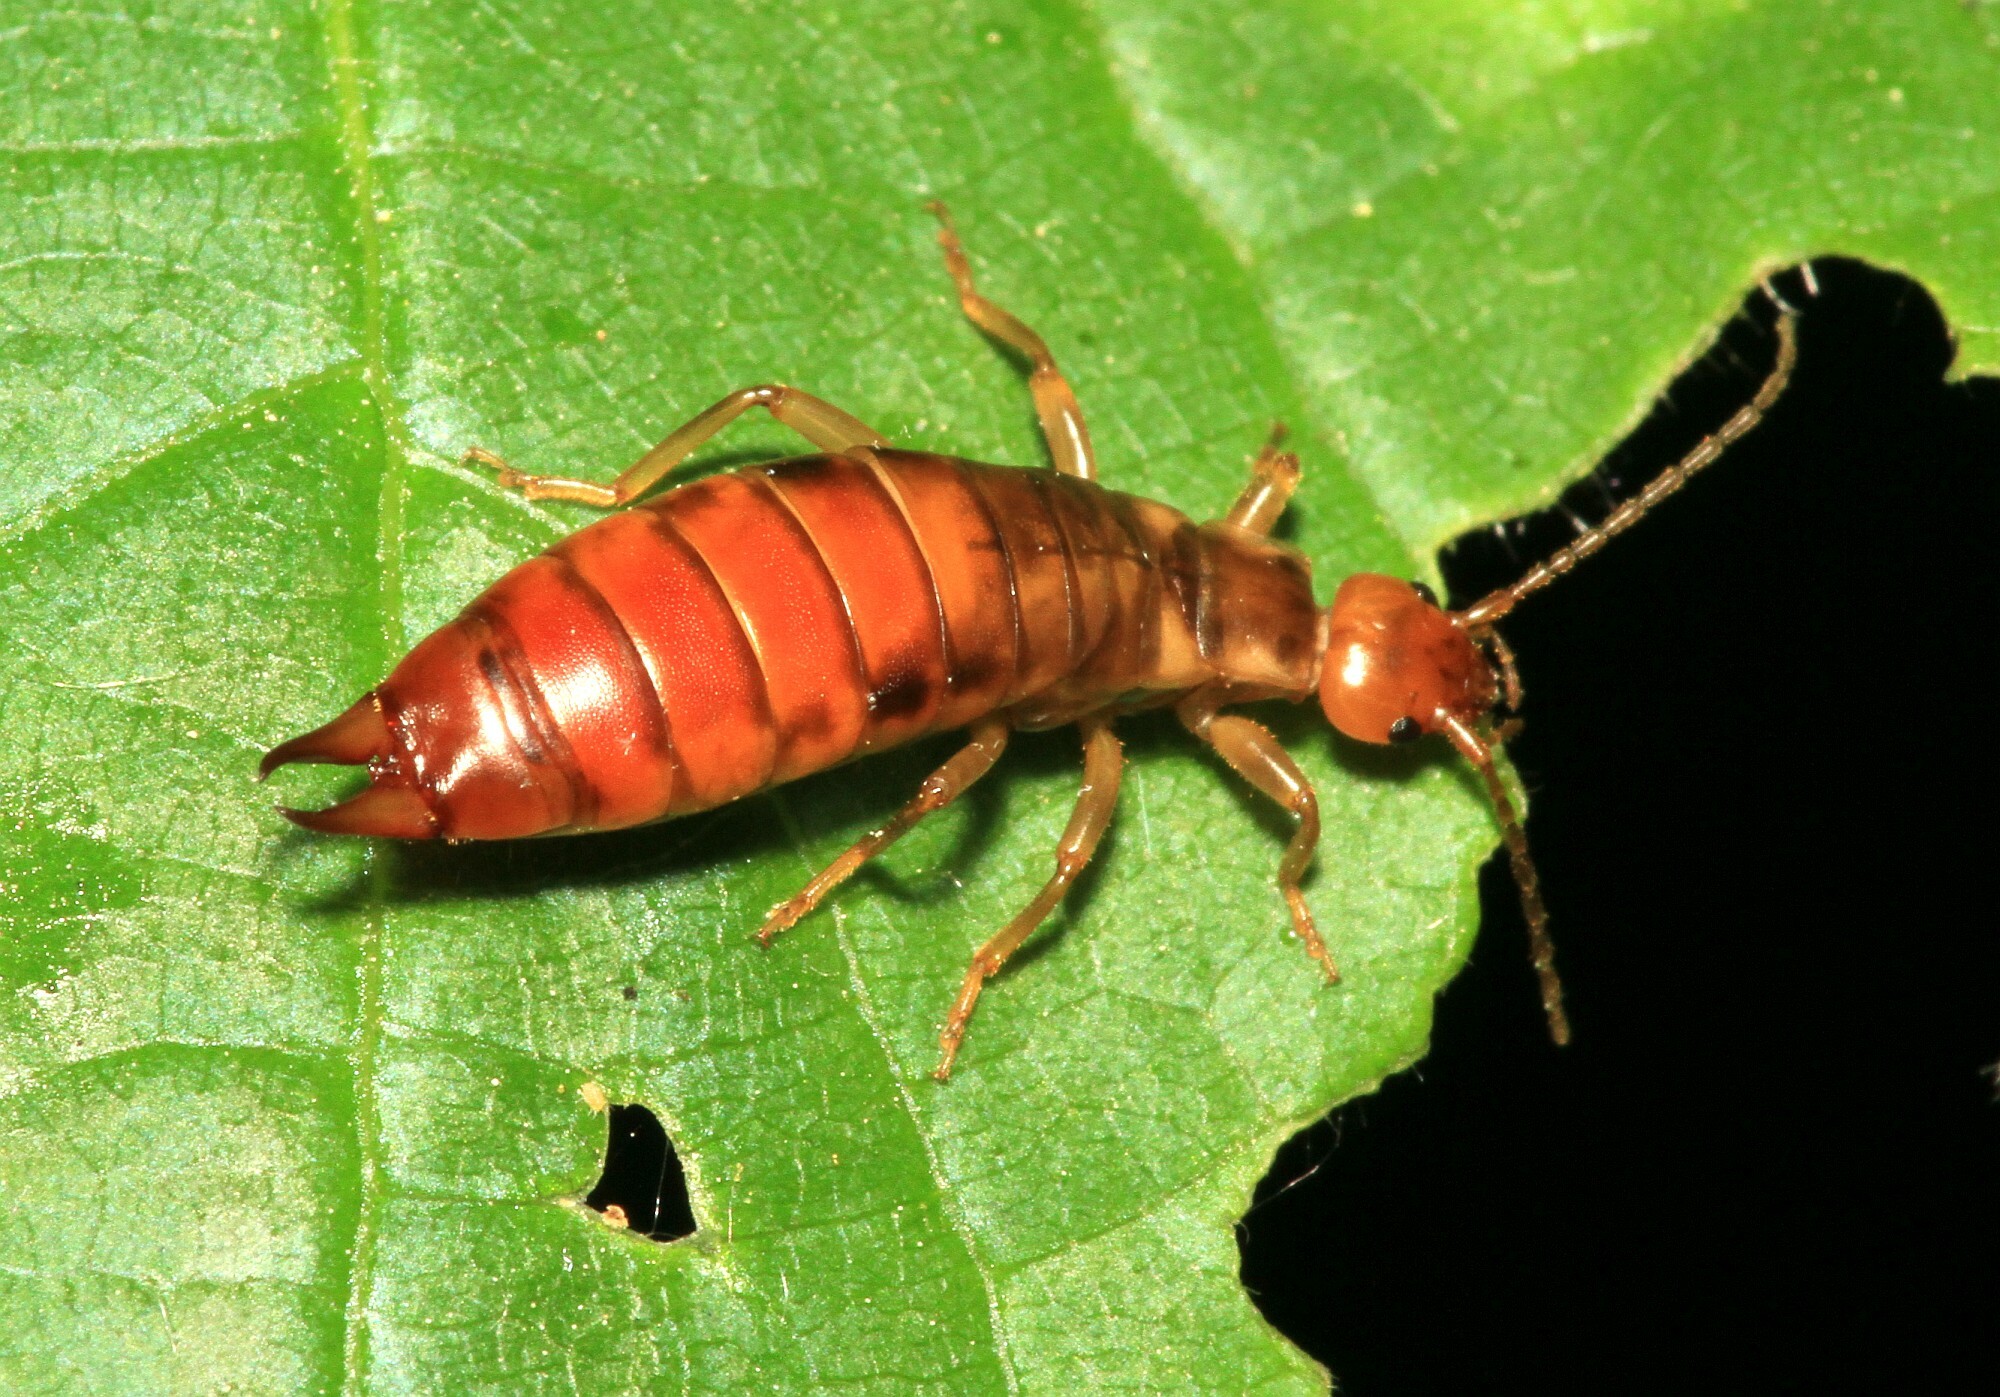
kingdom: Animalia
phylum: Arthropoda
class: Insecta
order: Dermaptera
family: Forficulidae
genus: Chelidurella
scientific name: Chelidurella acanthopygia
